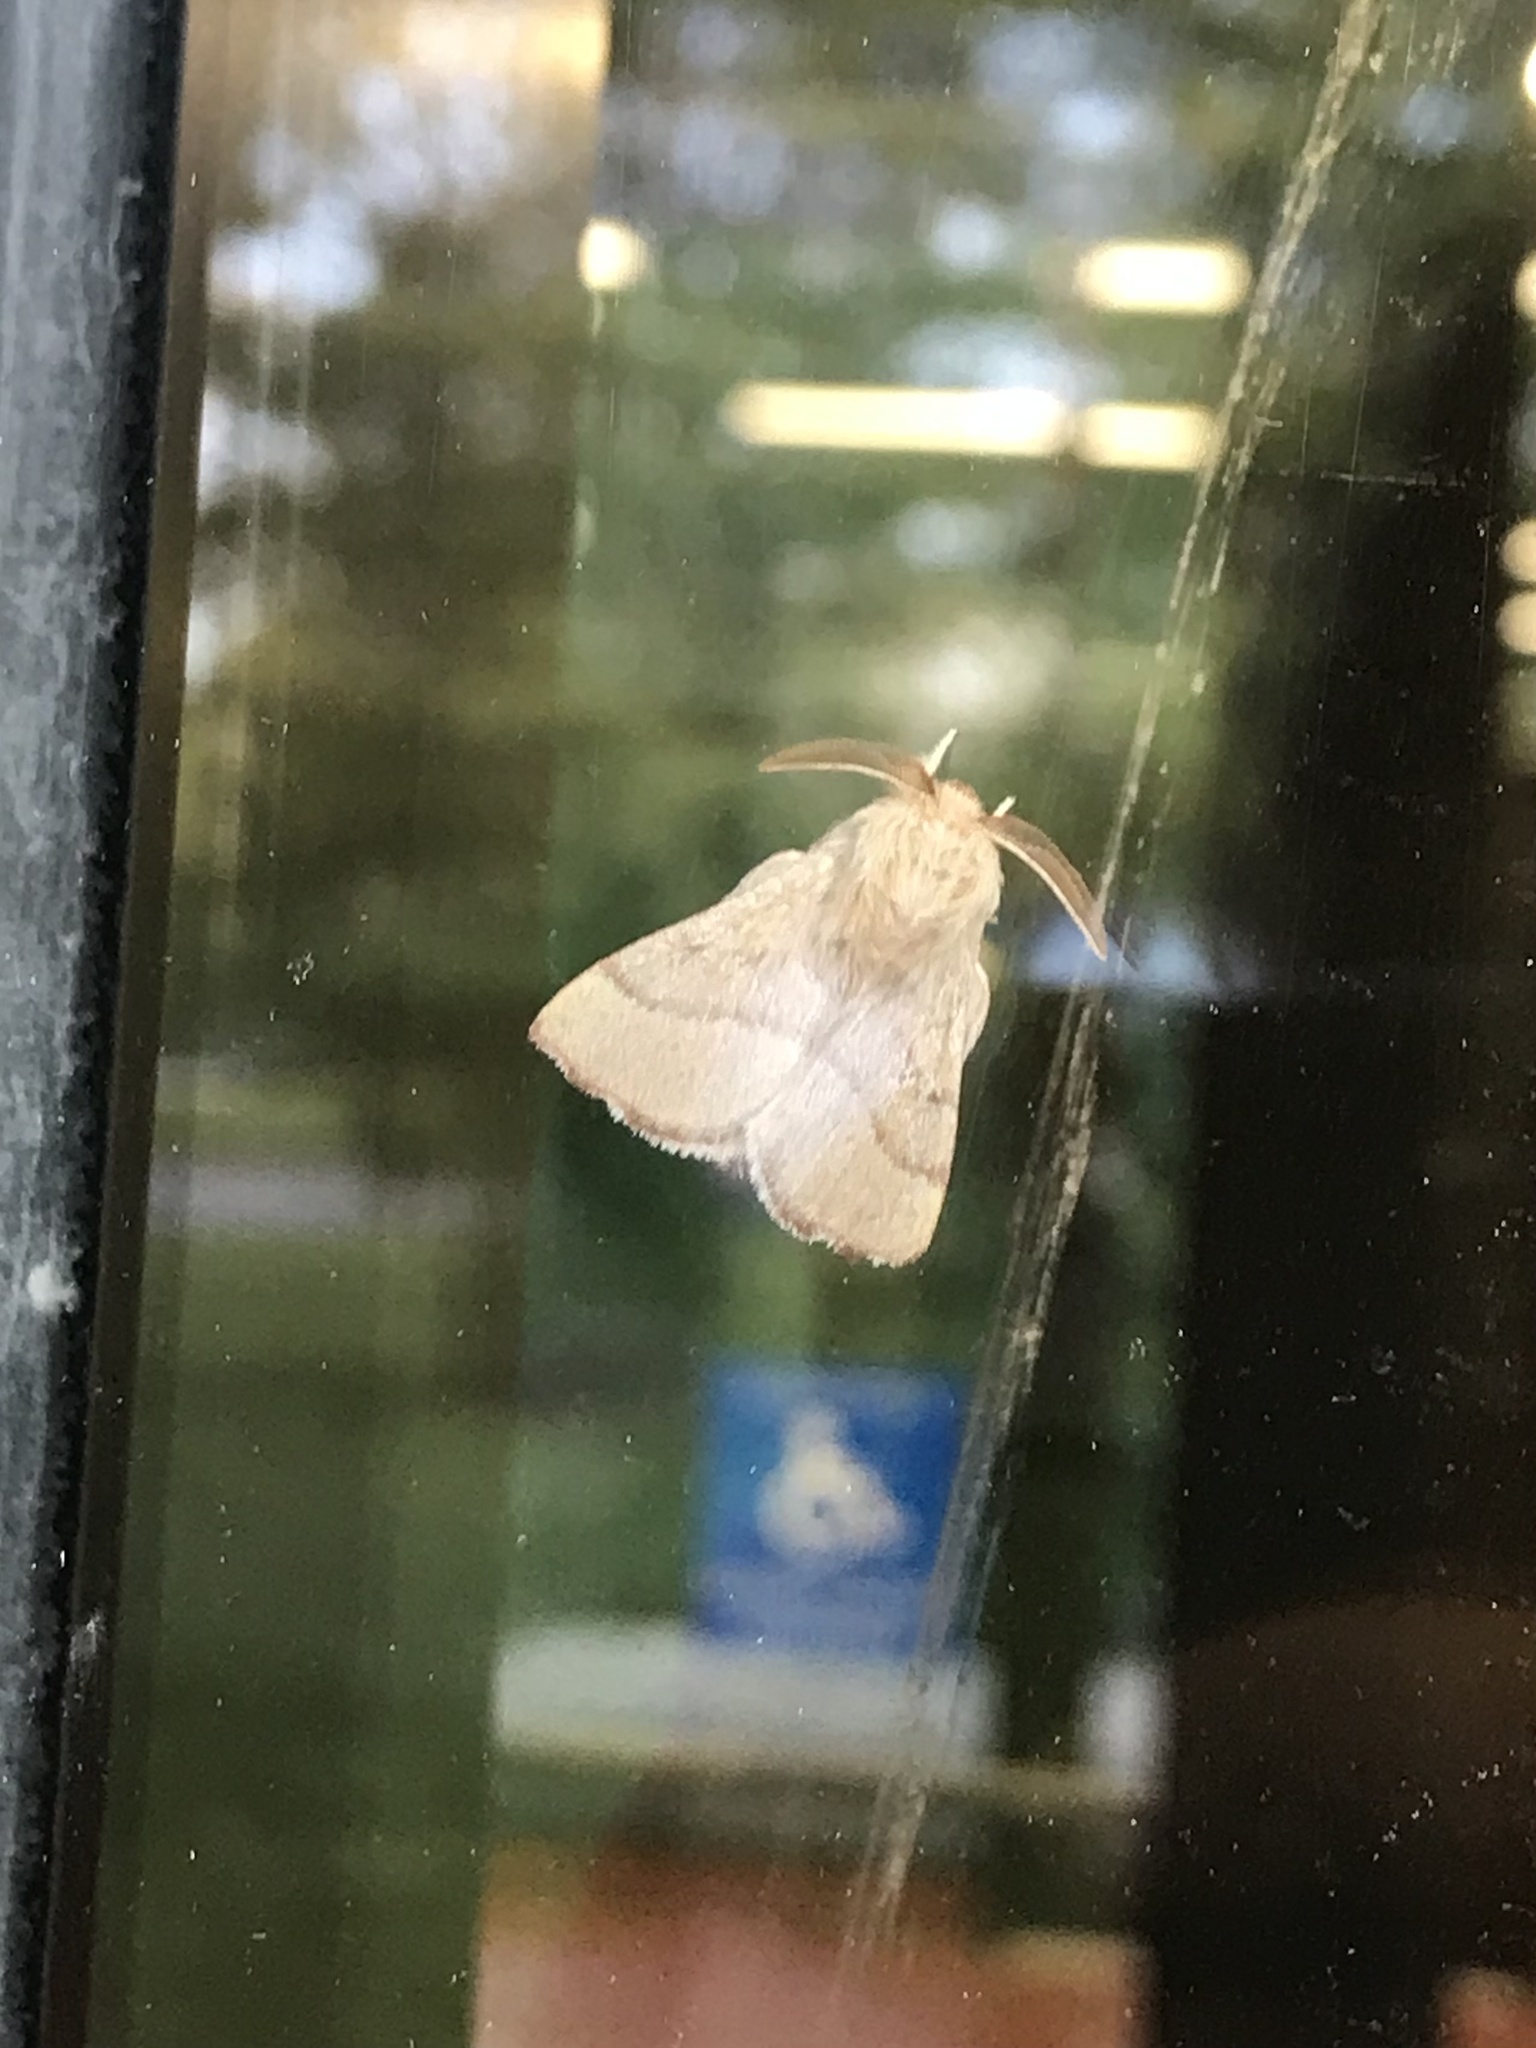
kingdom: Animalia
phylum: Arthropoda
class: Insecta
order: Lepidoptera
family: Lasiocampidae
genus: Malacosoma
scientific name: Malacosoma disstria
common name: Forest tent caterpillar
